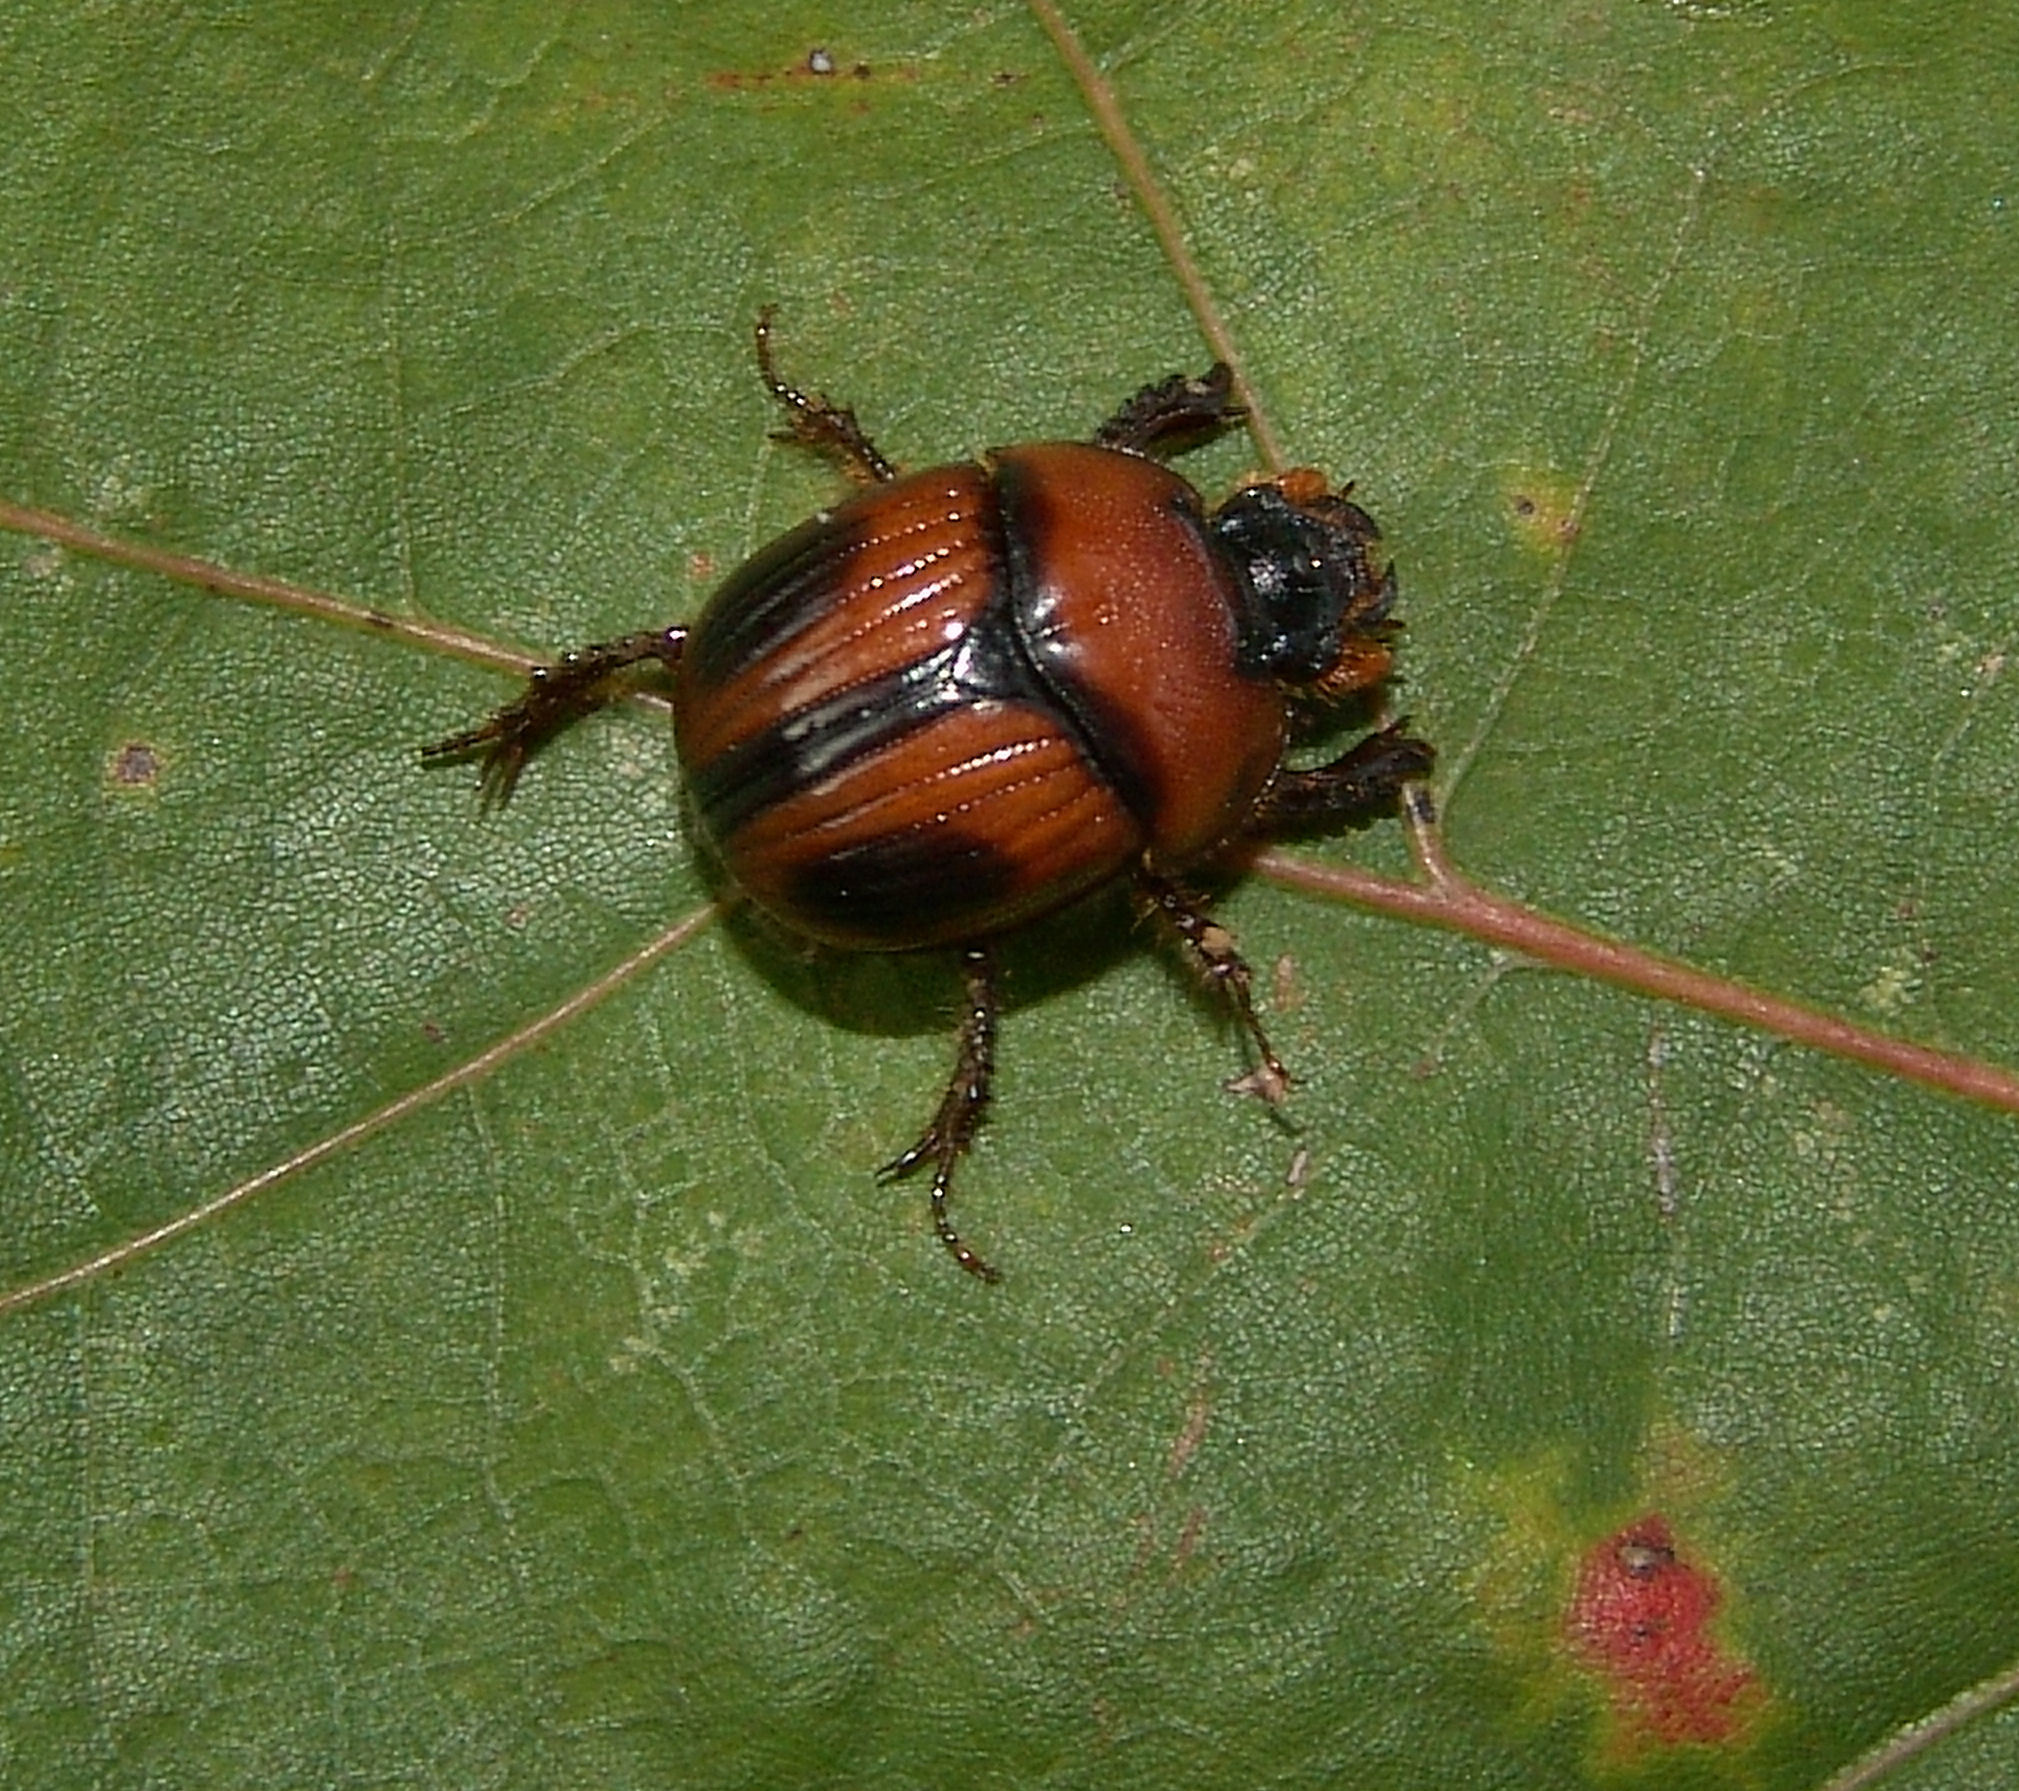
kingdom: Animalia
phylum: Arthropoda
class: Insecta
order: Coleoptera
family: Geotrupidae
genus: Bolbocerosoma
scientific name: Bolbocerosoma confusum
